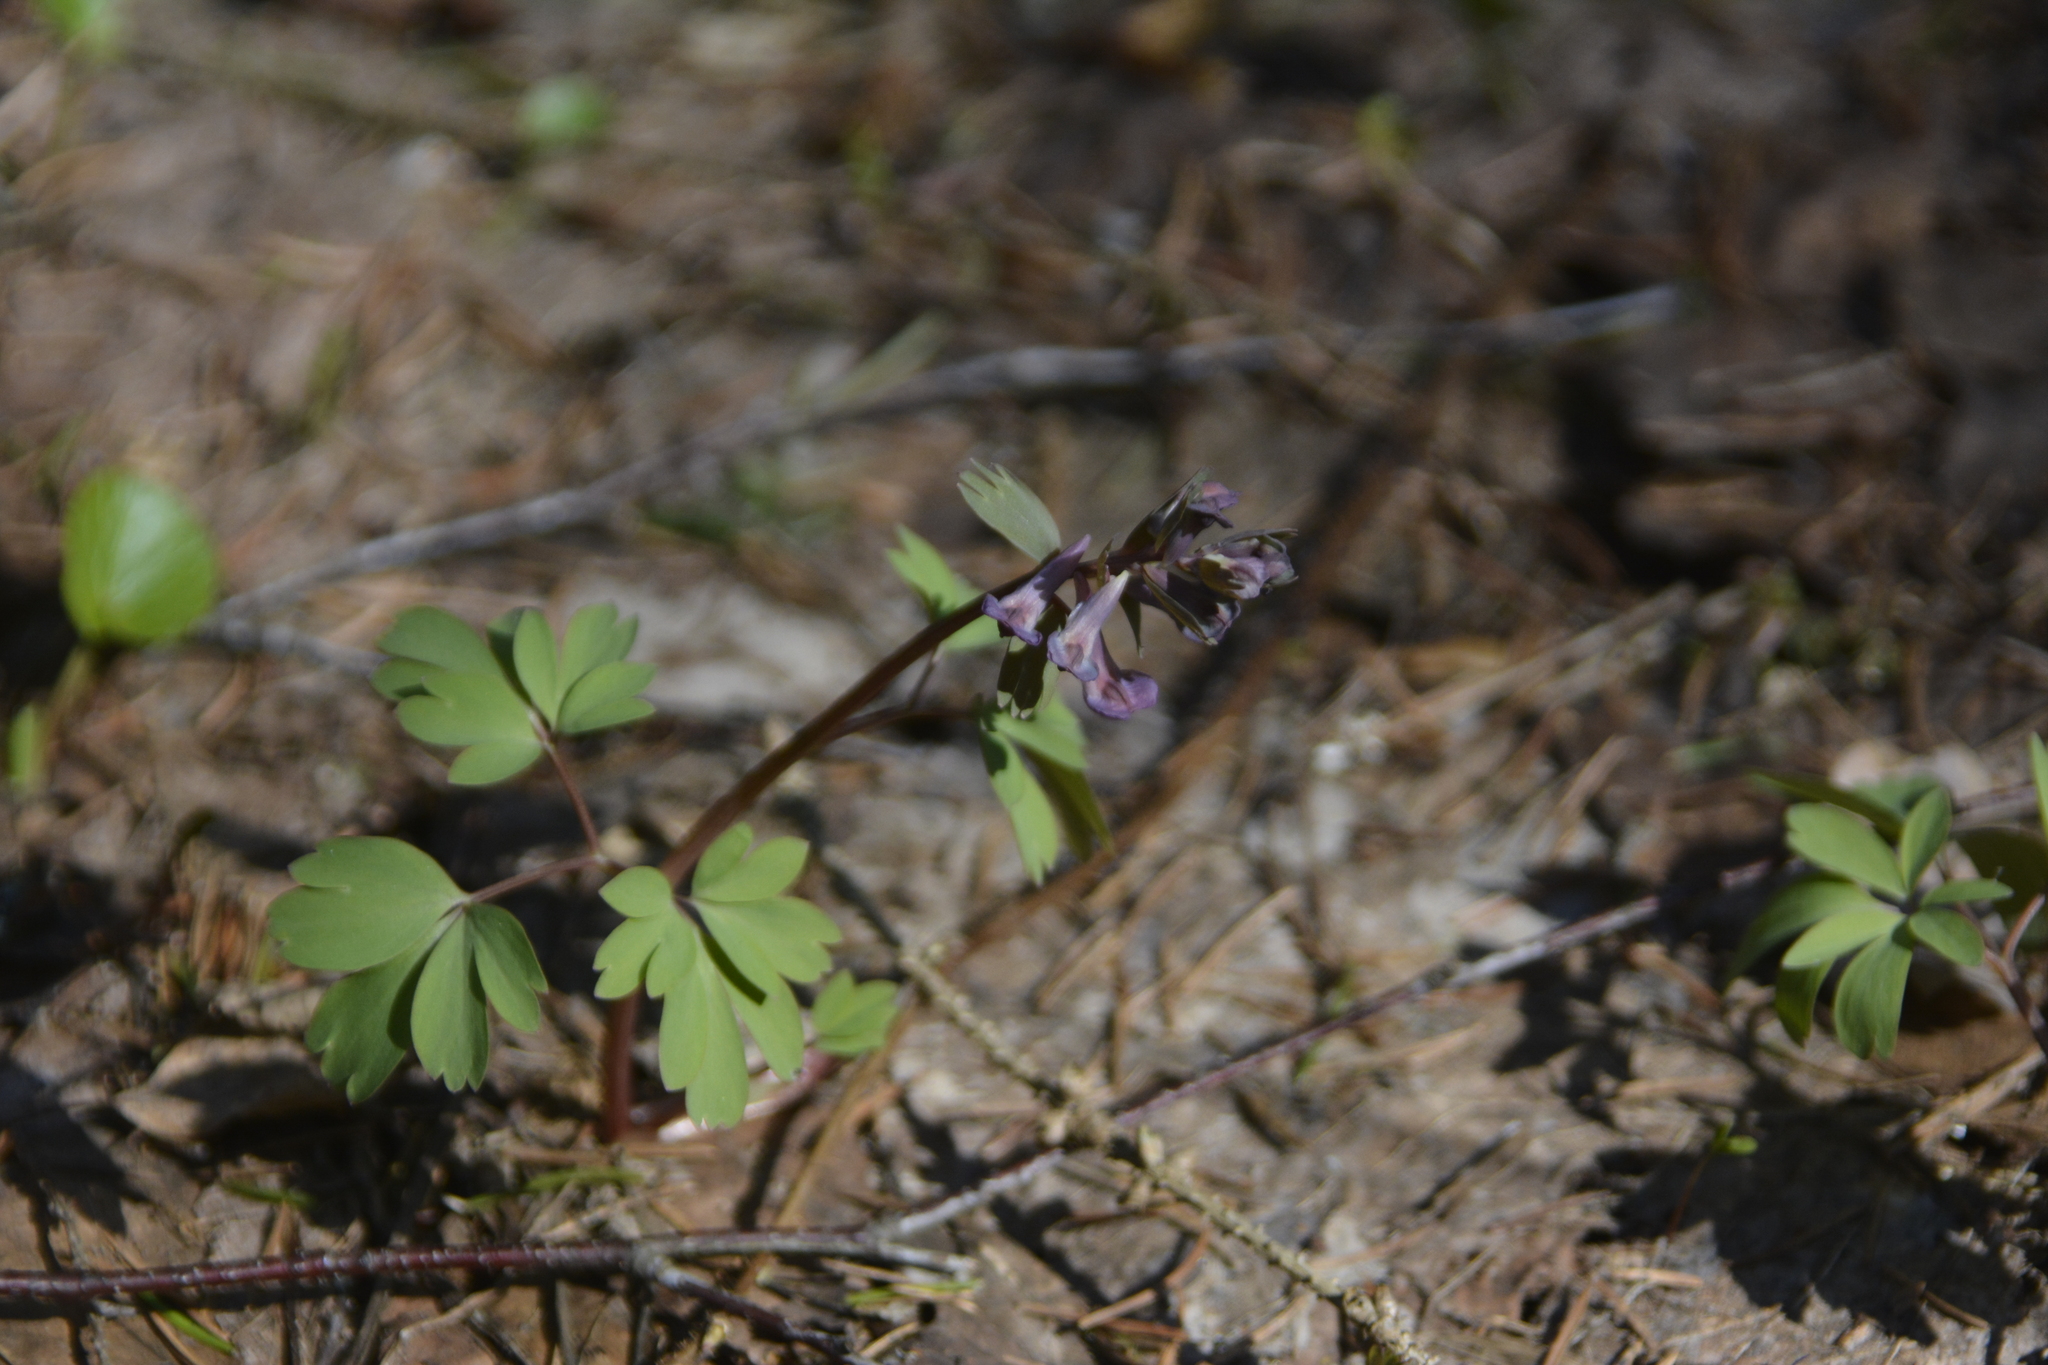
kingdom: Plantae
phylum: Tracheophyta
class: Magnoliopsida
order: Ranunculales
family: Papaveraceae
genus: Corydalis
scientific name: Corydalis solida
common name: Bird-in-a-bush
